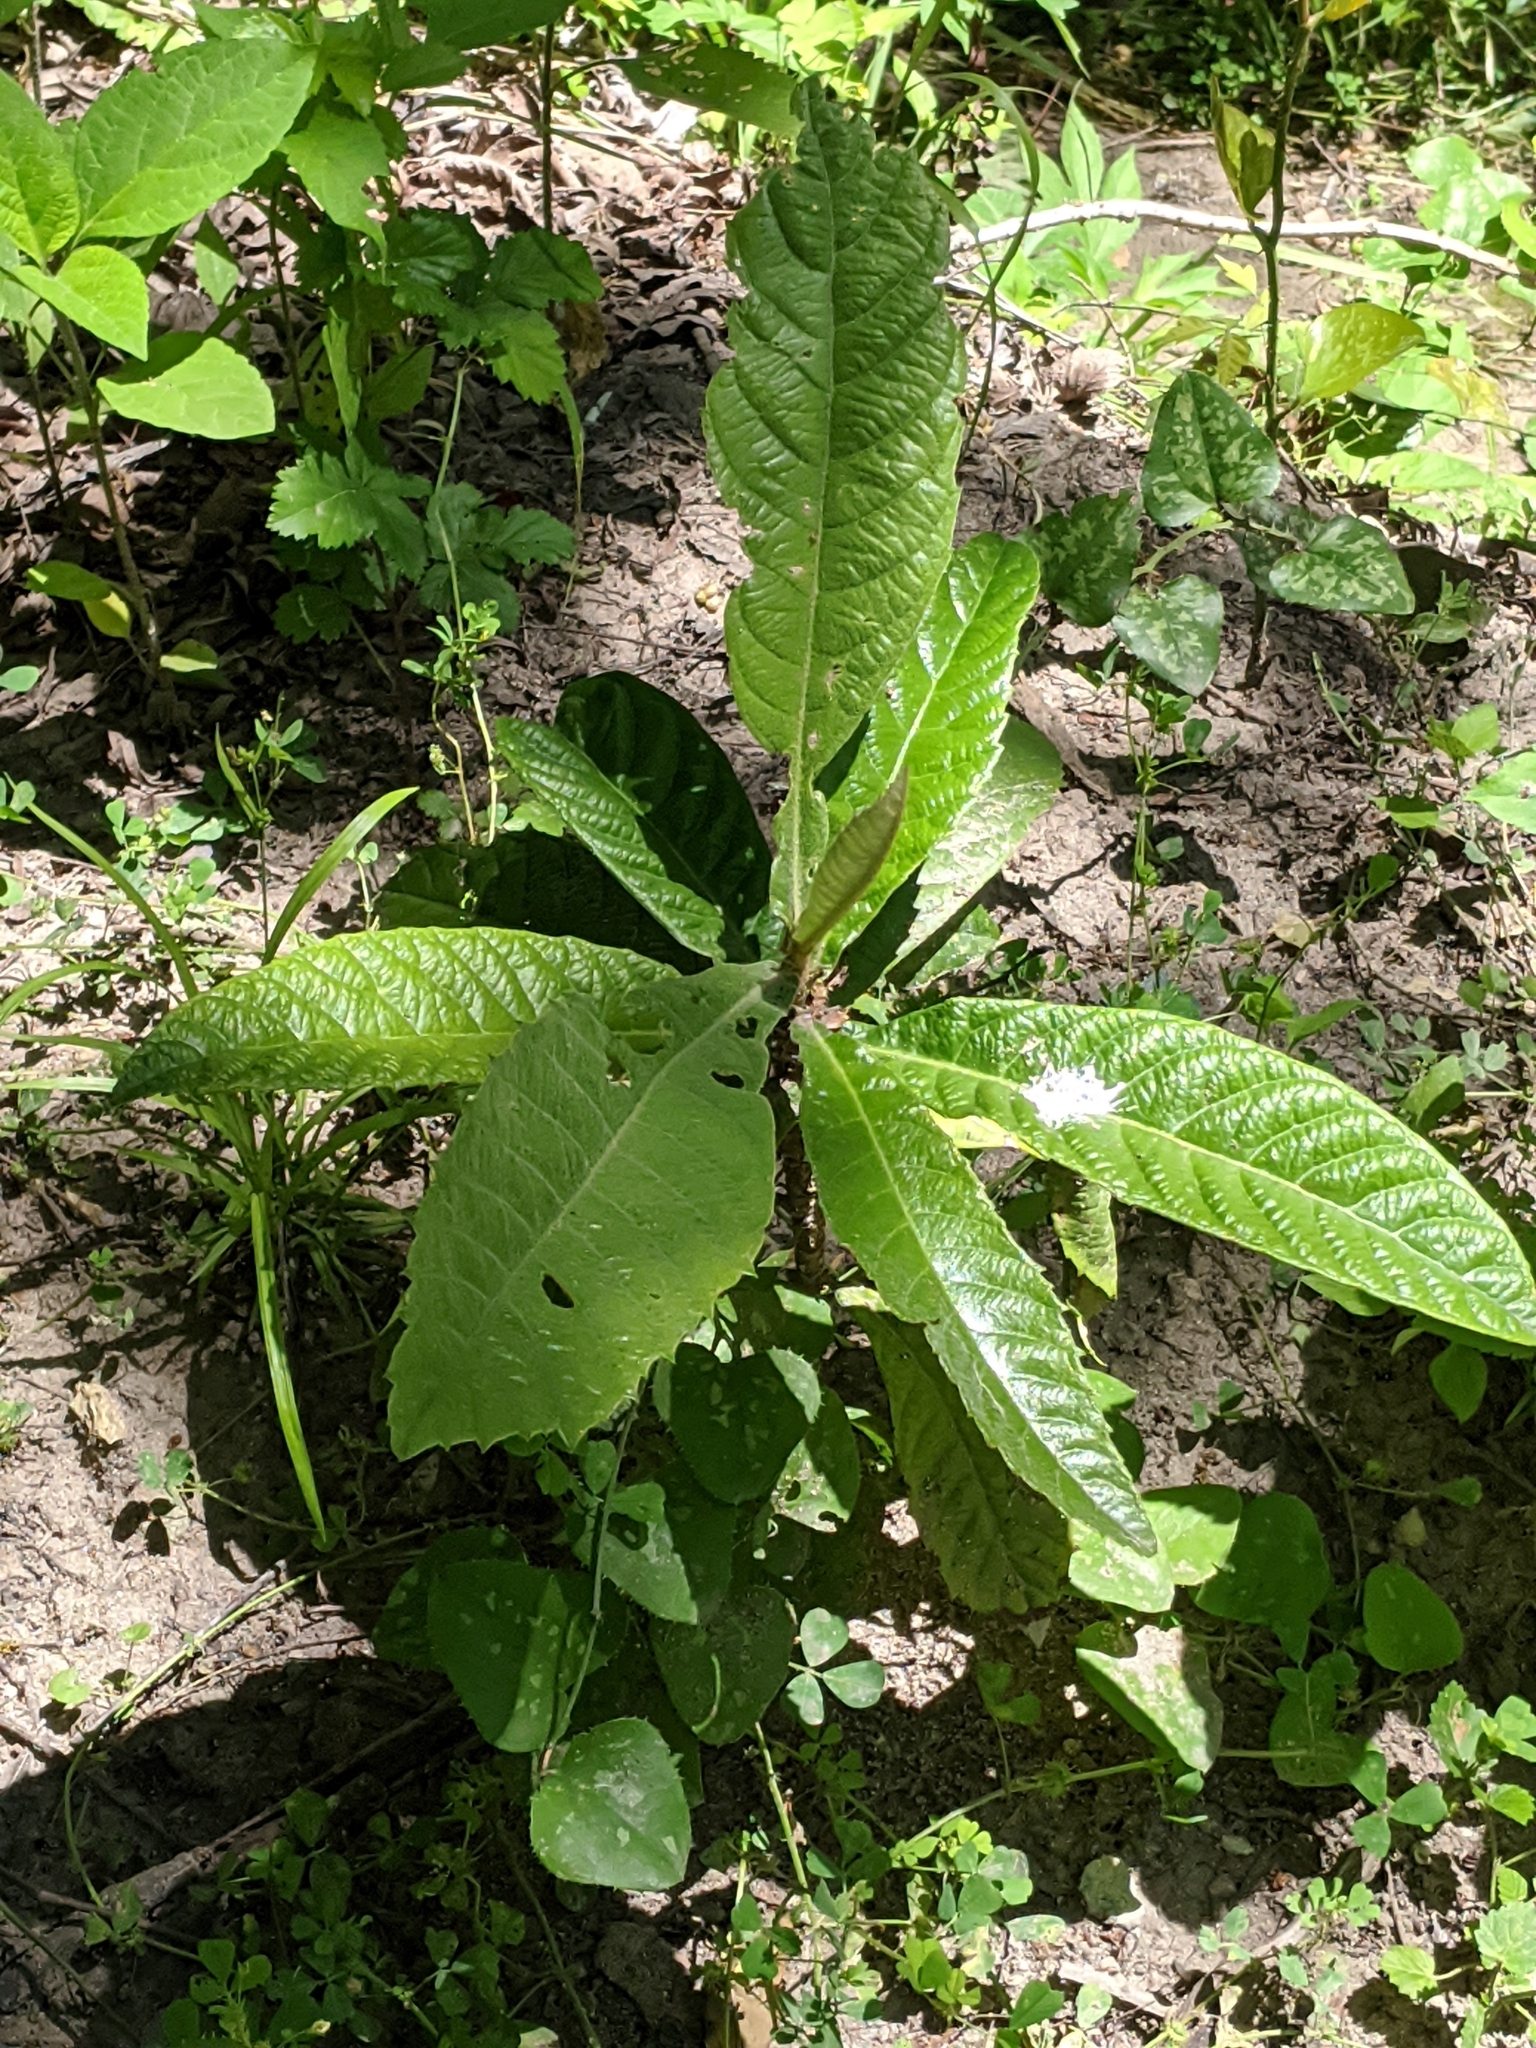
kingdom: Plantae
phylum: Tracheophyta
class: Magnoliopsida
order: Rosales
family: Rosaceae
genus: Rhaphiolepis
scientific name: Rhaphiolepis bibas
